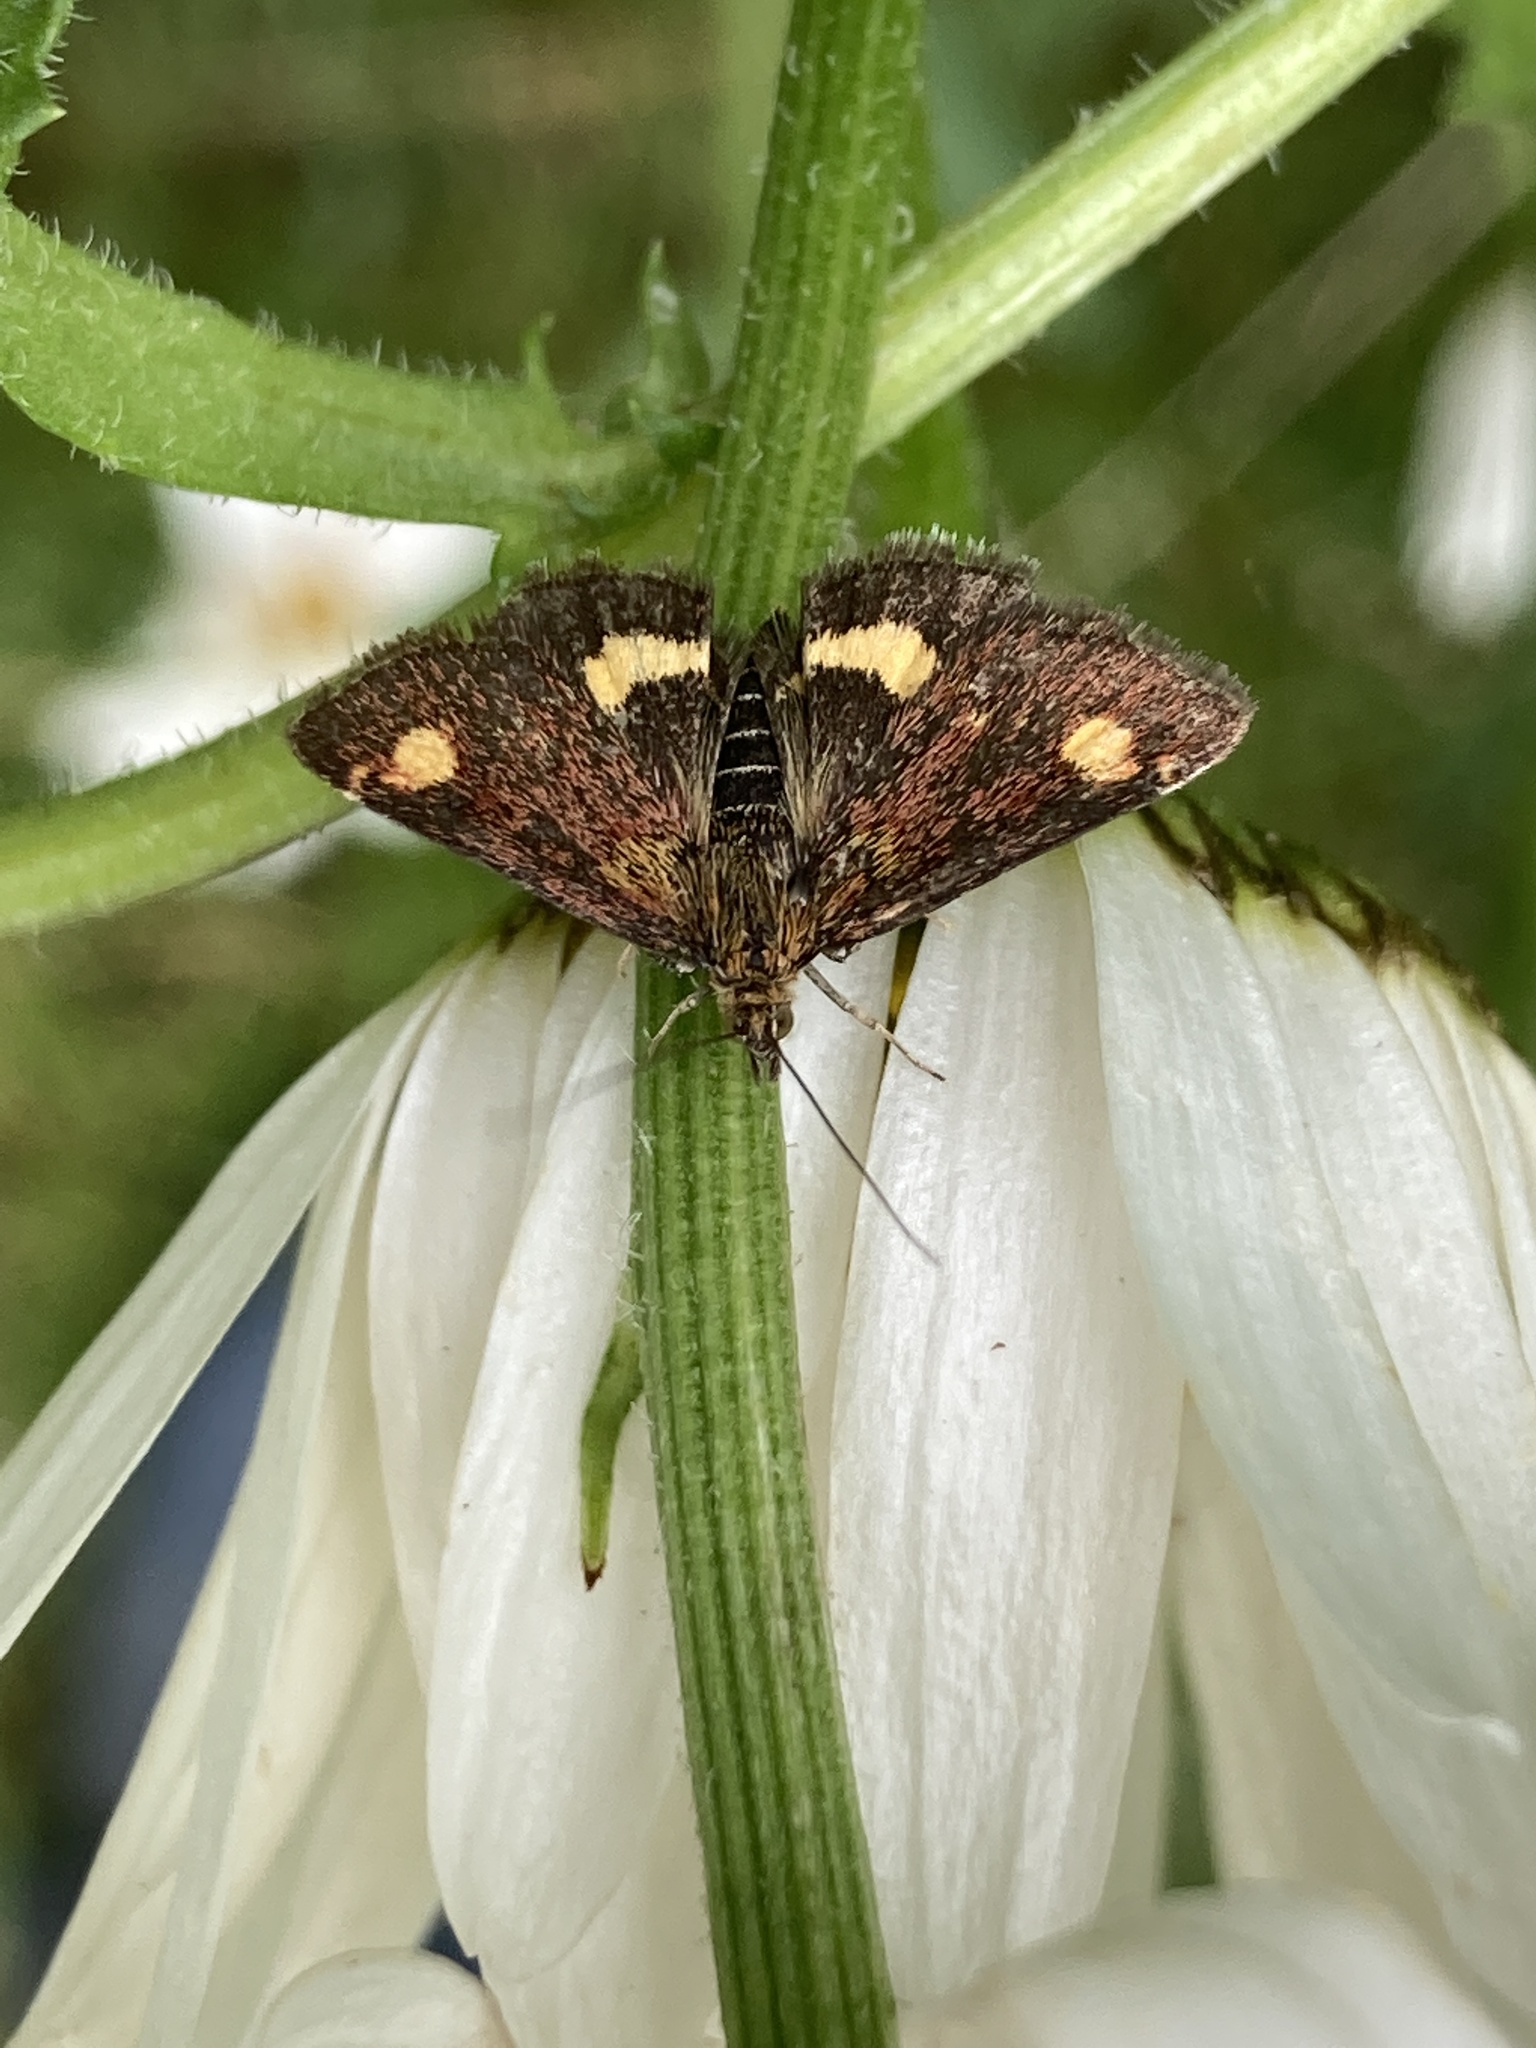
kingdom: Animalia
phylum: Arthropoda
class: Insecta
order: Lepidoptera
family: Crambidae
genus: Pyrausta
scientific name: Pyrausta aurata
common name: Small purple & gold
